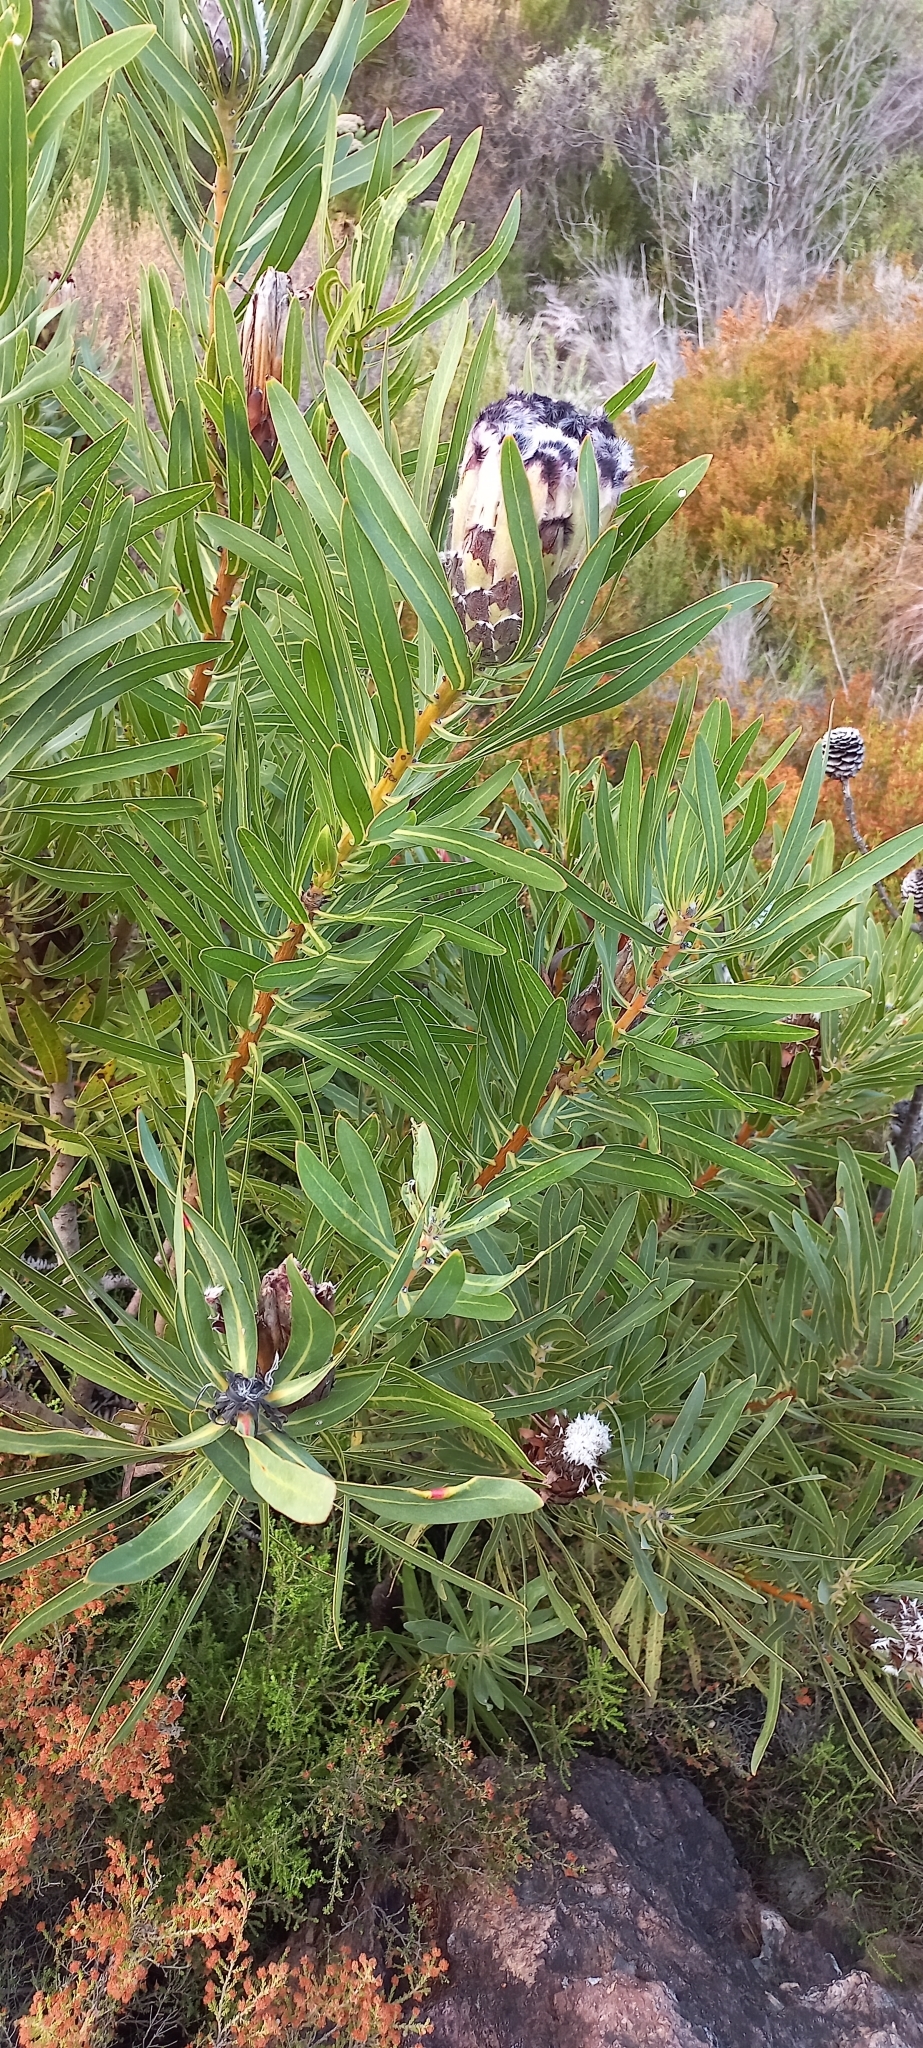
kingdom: Plantae
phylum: Tracheophyta
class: Magnoliopsida
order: Proteales
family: Proteaceae
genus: Protea
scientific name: Protea
